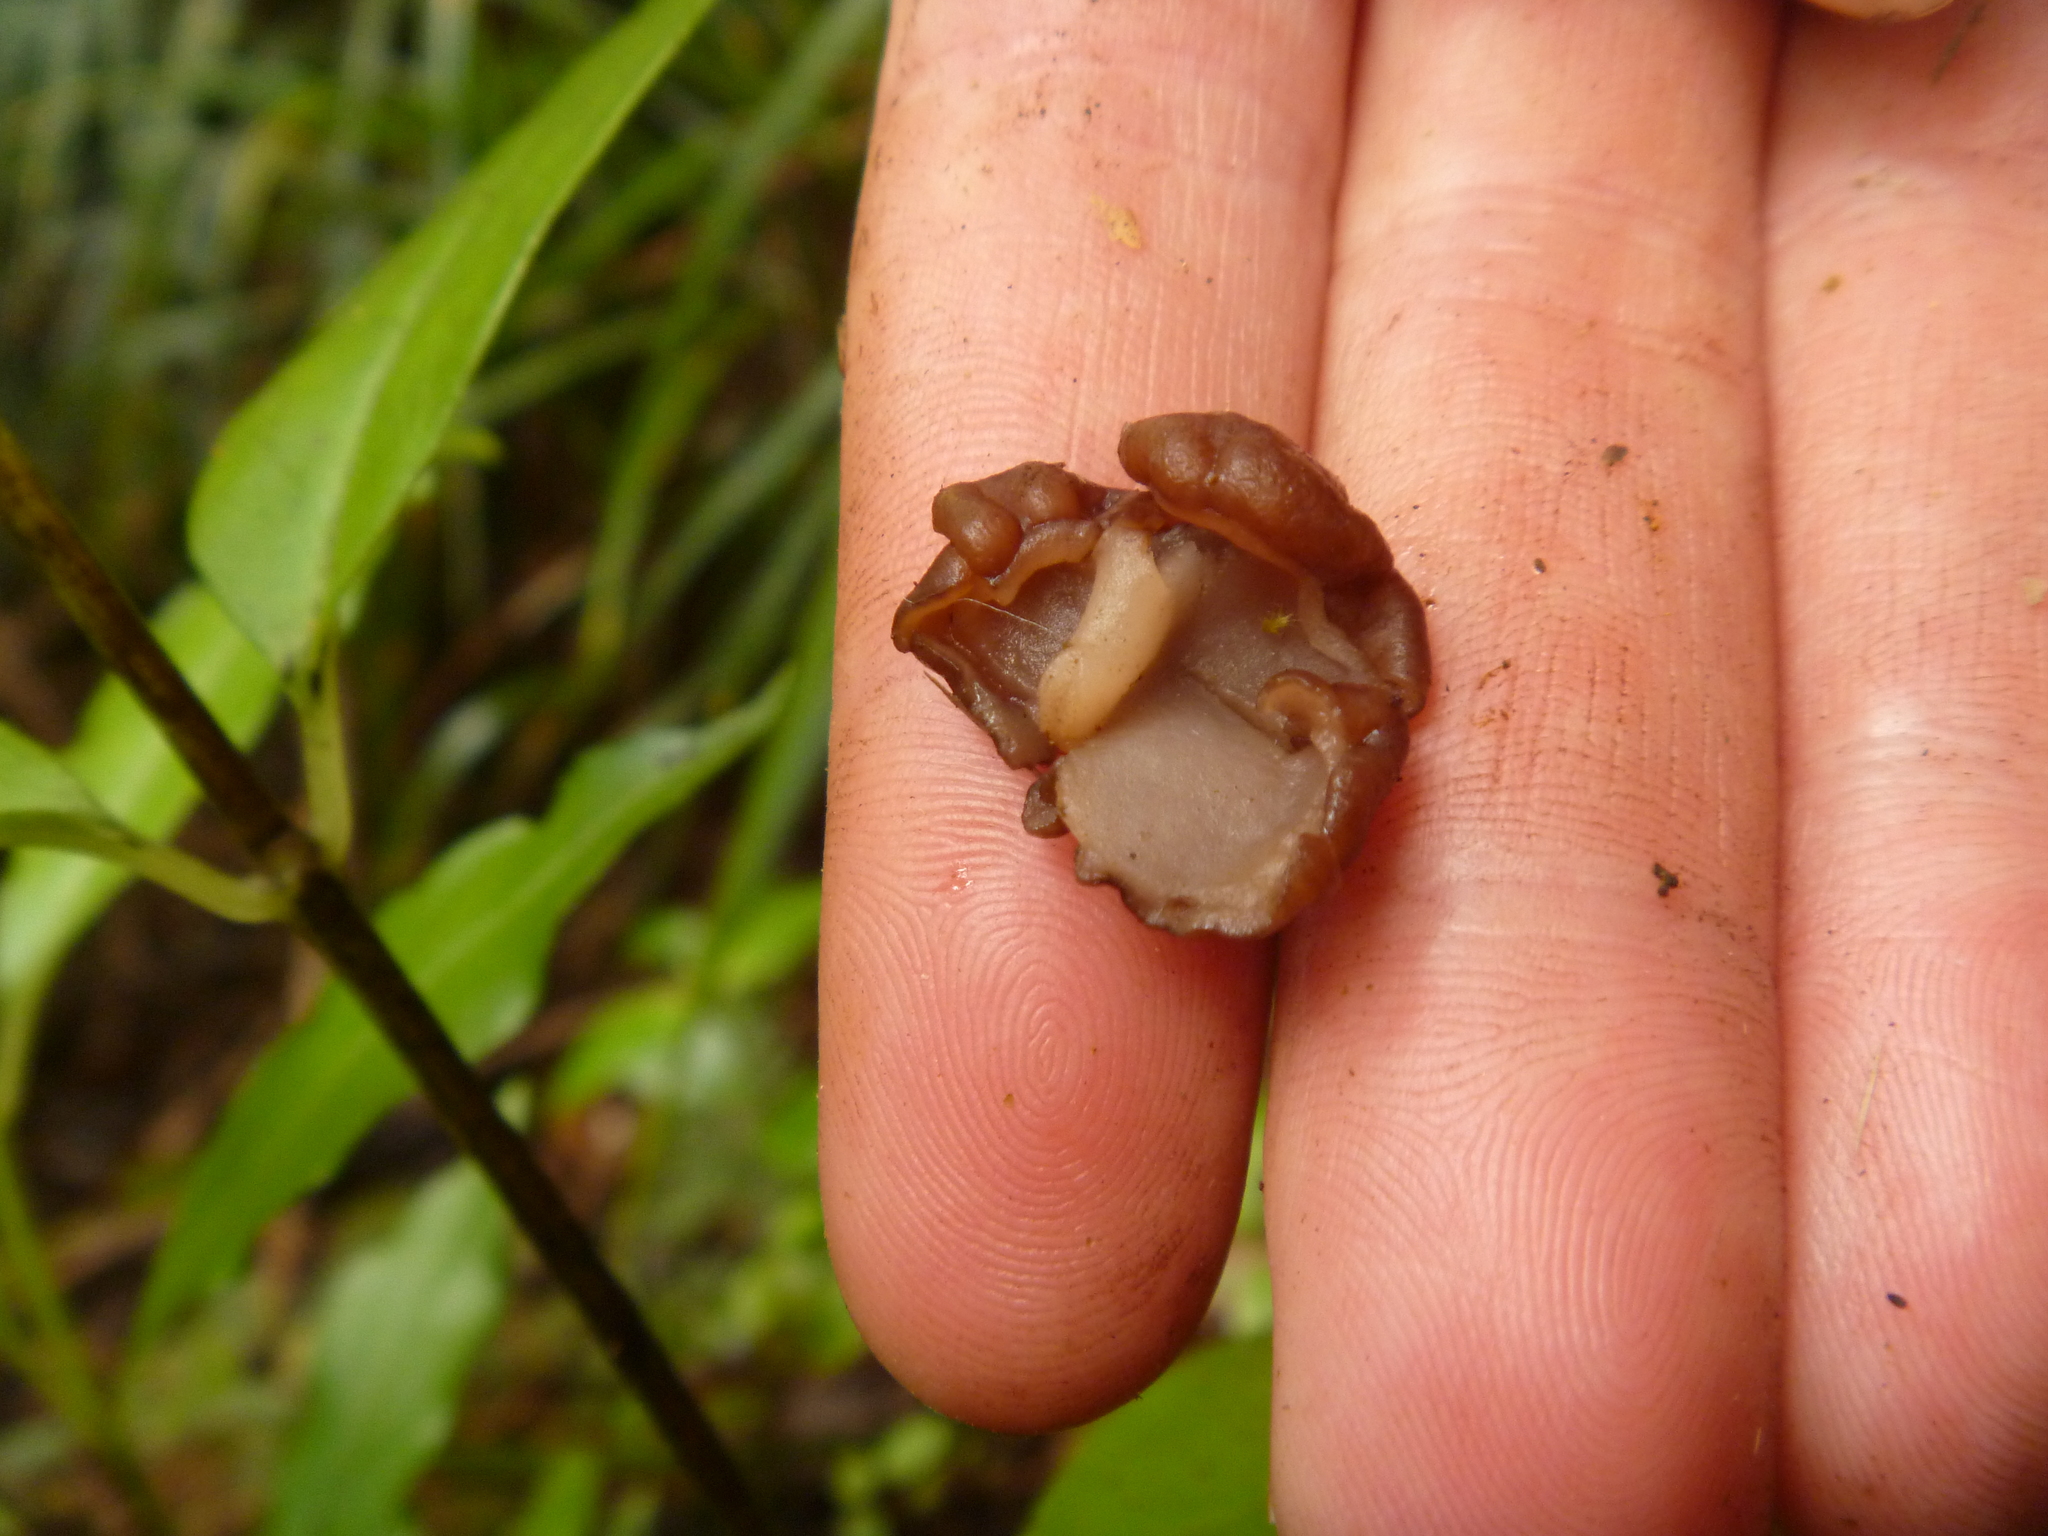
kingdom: Fungi
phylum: Ascomycota
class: Pezizomycetes
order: Pezizales
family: Discinaceae
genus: Gyromitra
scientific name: Gyromitra tasmanica
